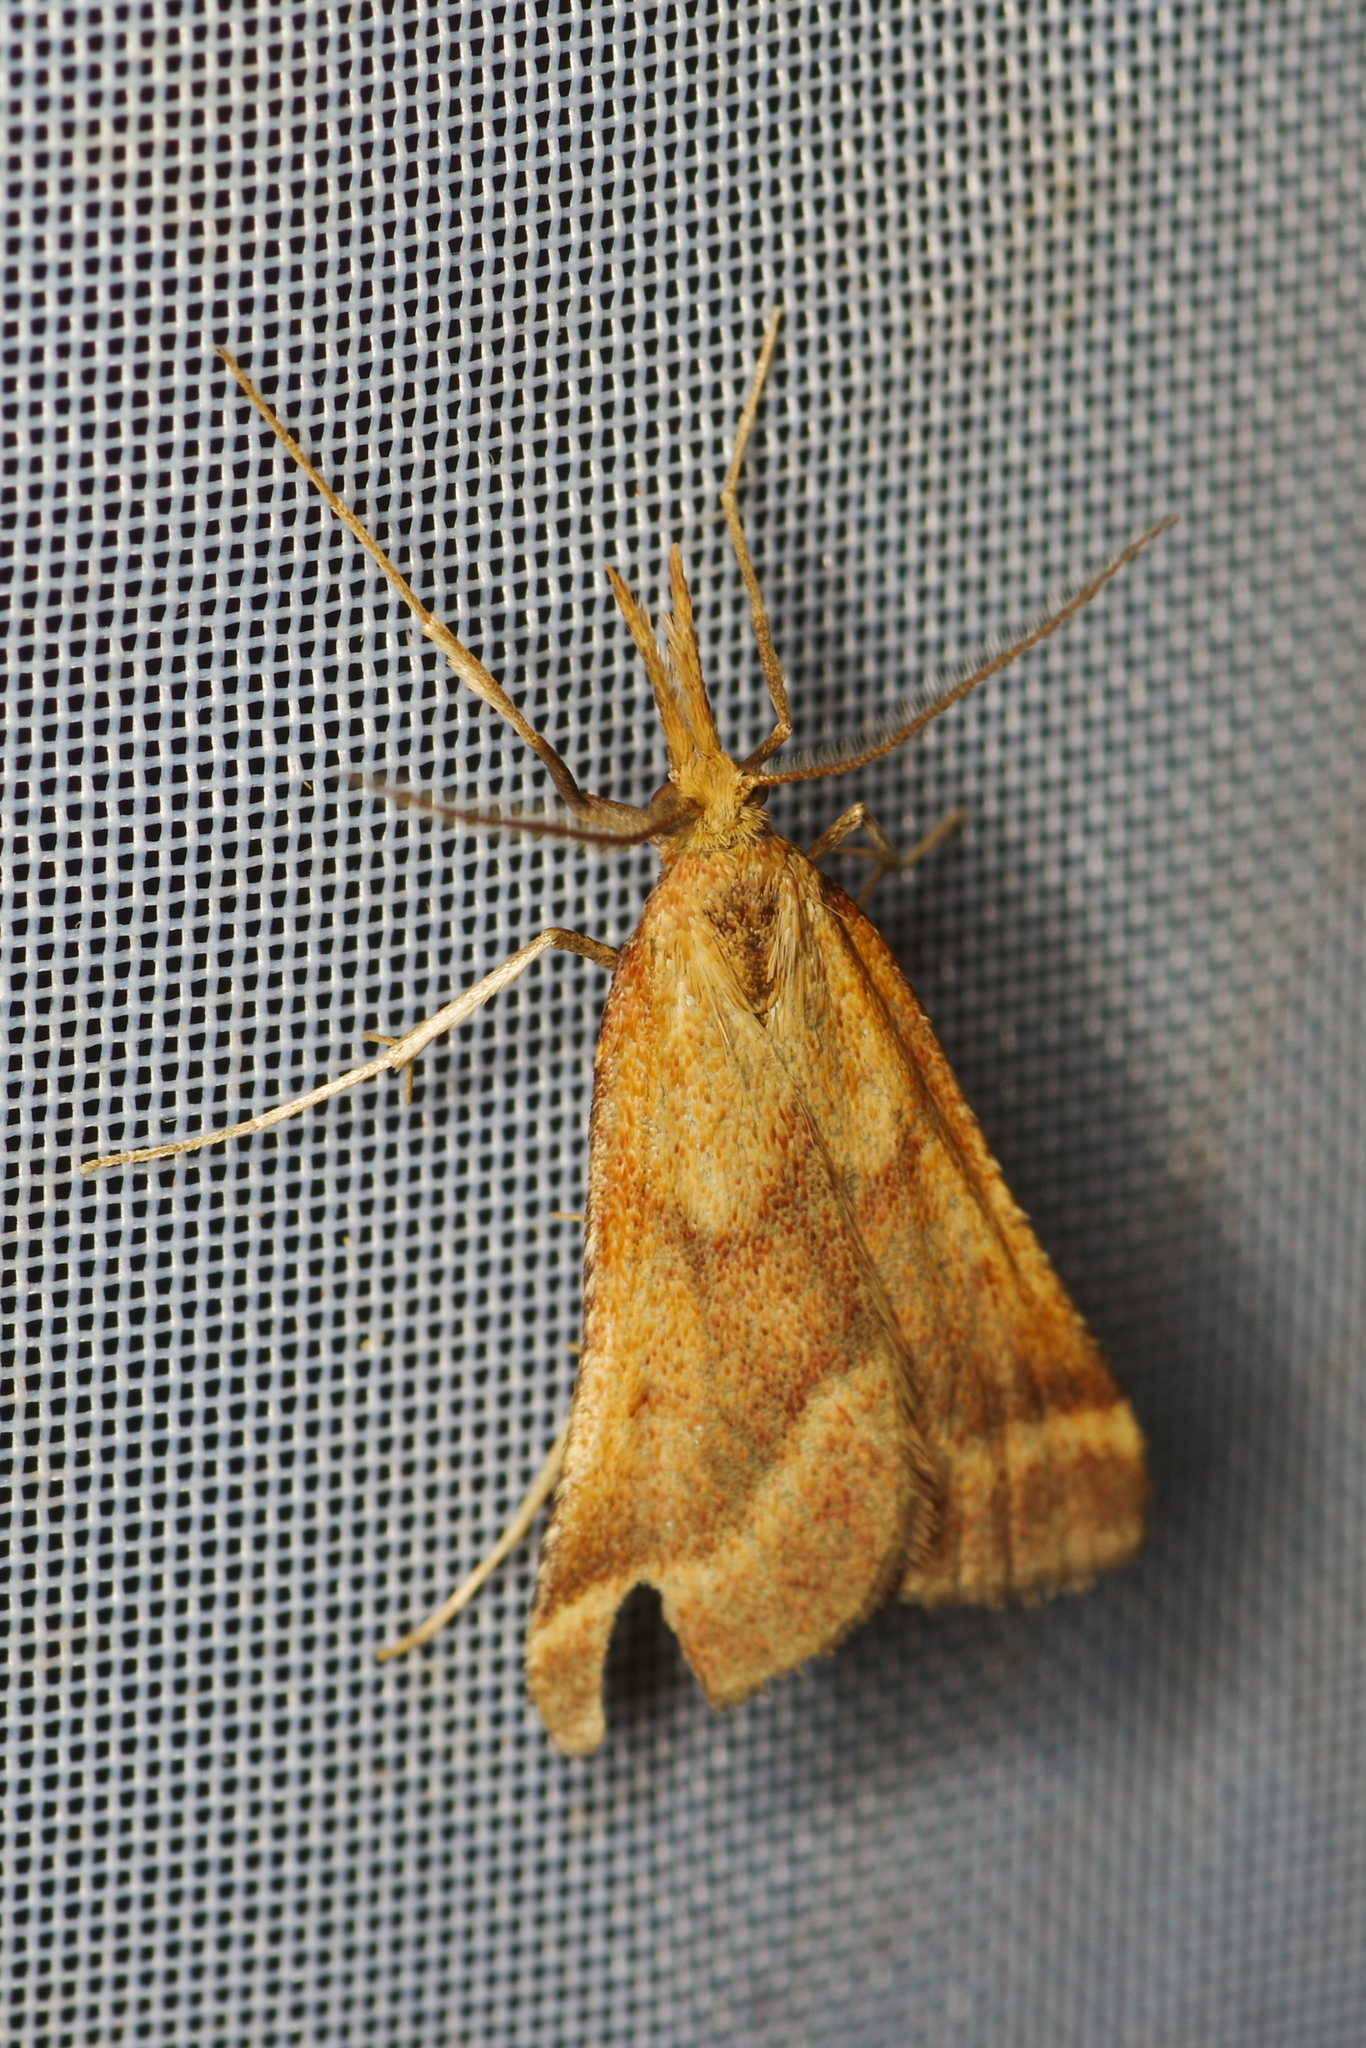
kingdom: Animalia
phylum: Arthropoda
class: Insecta
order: Lepidoptera
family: Pyralidae
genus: Synaphe
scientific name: Synaphe punctalis
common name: Long-legged tabby
